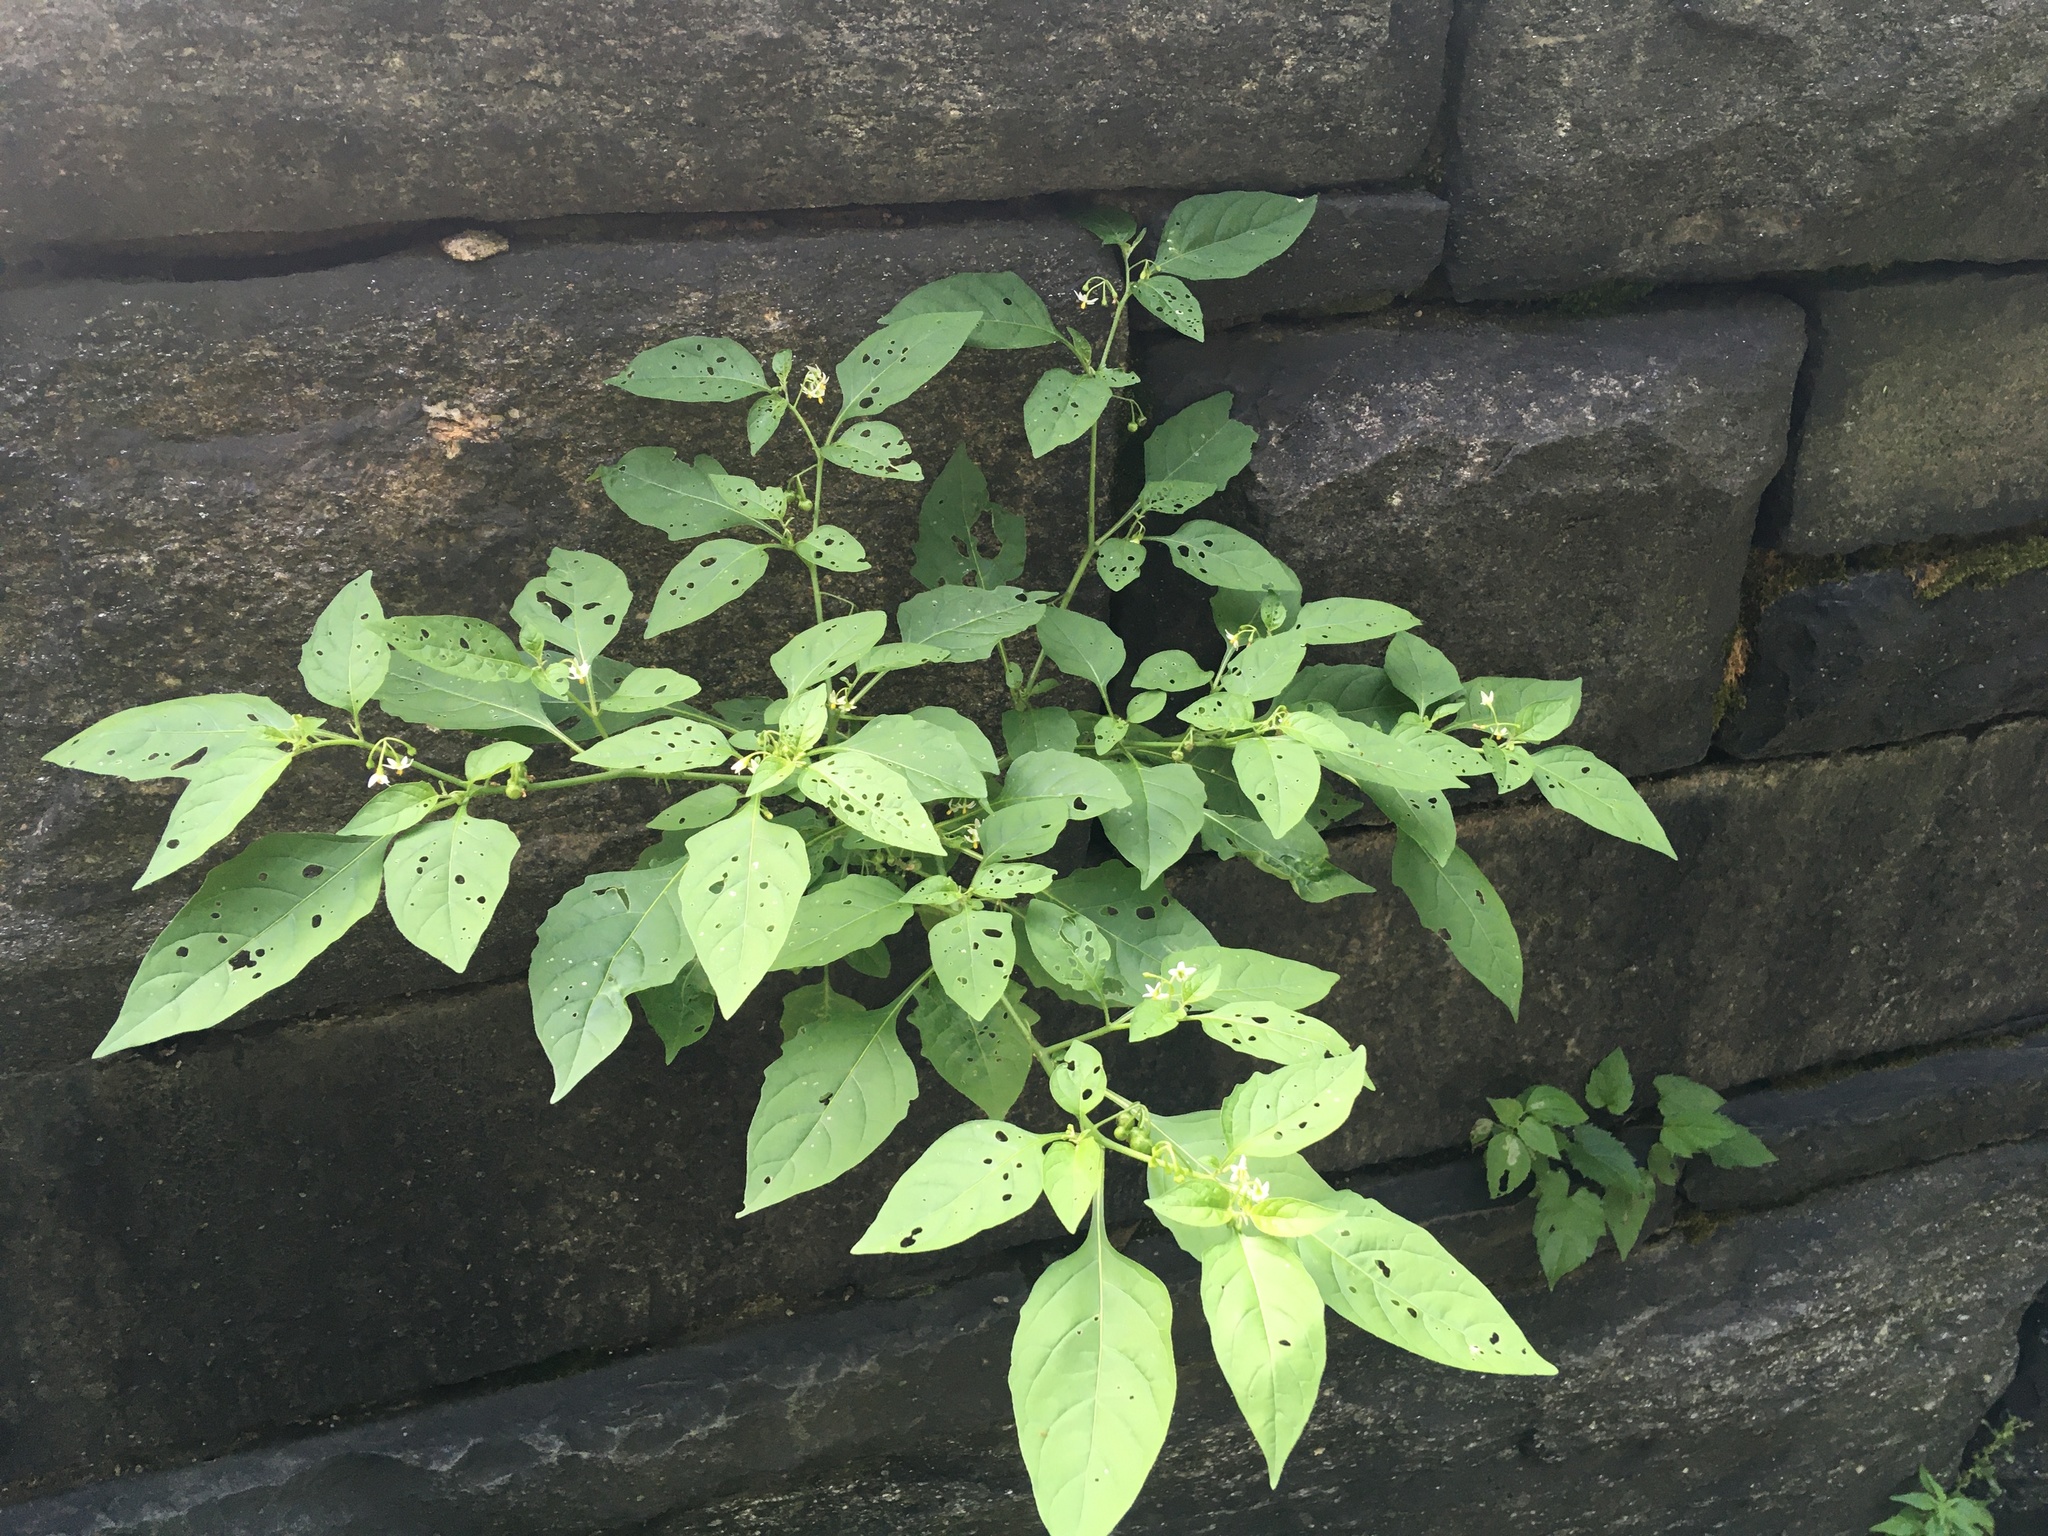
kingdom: Plantae
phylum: Tracheophyta
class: Magnoliopsida
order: Solanales
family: Solanaceae
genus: Solanum
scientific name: Solanum emulans
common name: Eastern black nightshade
